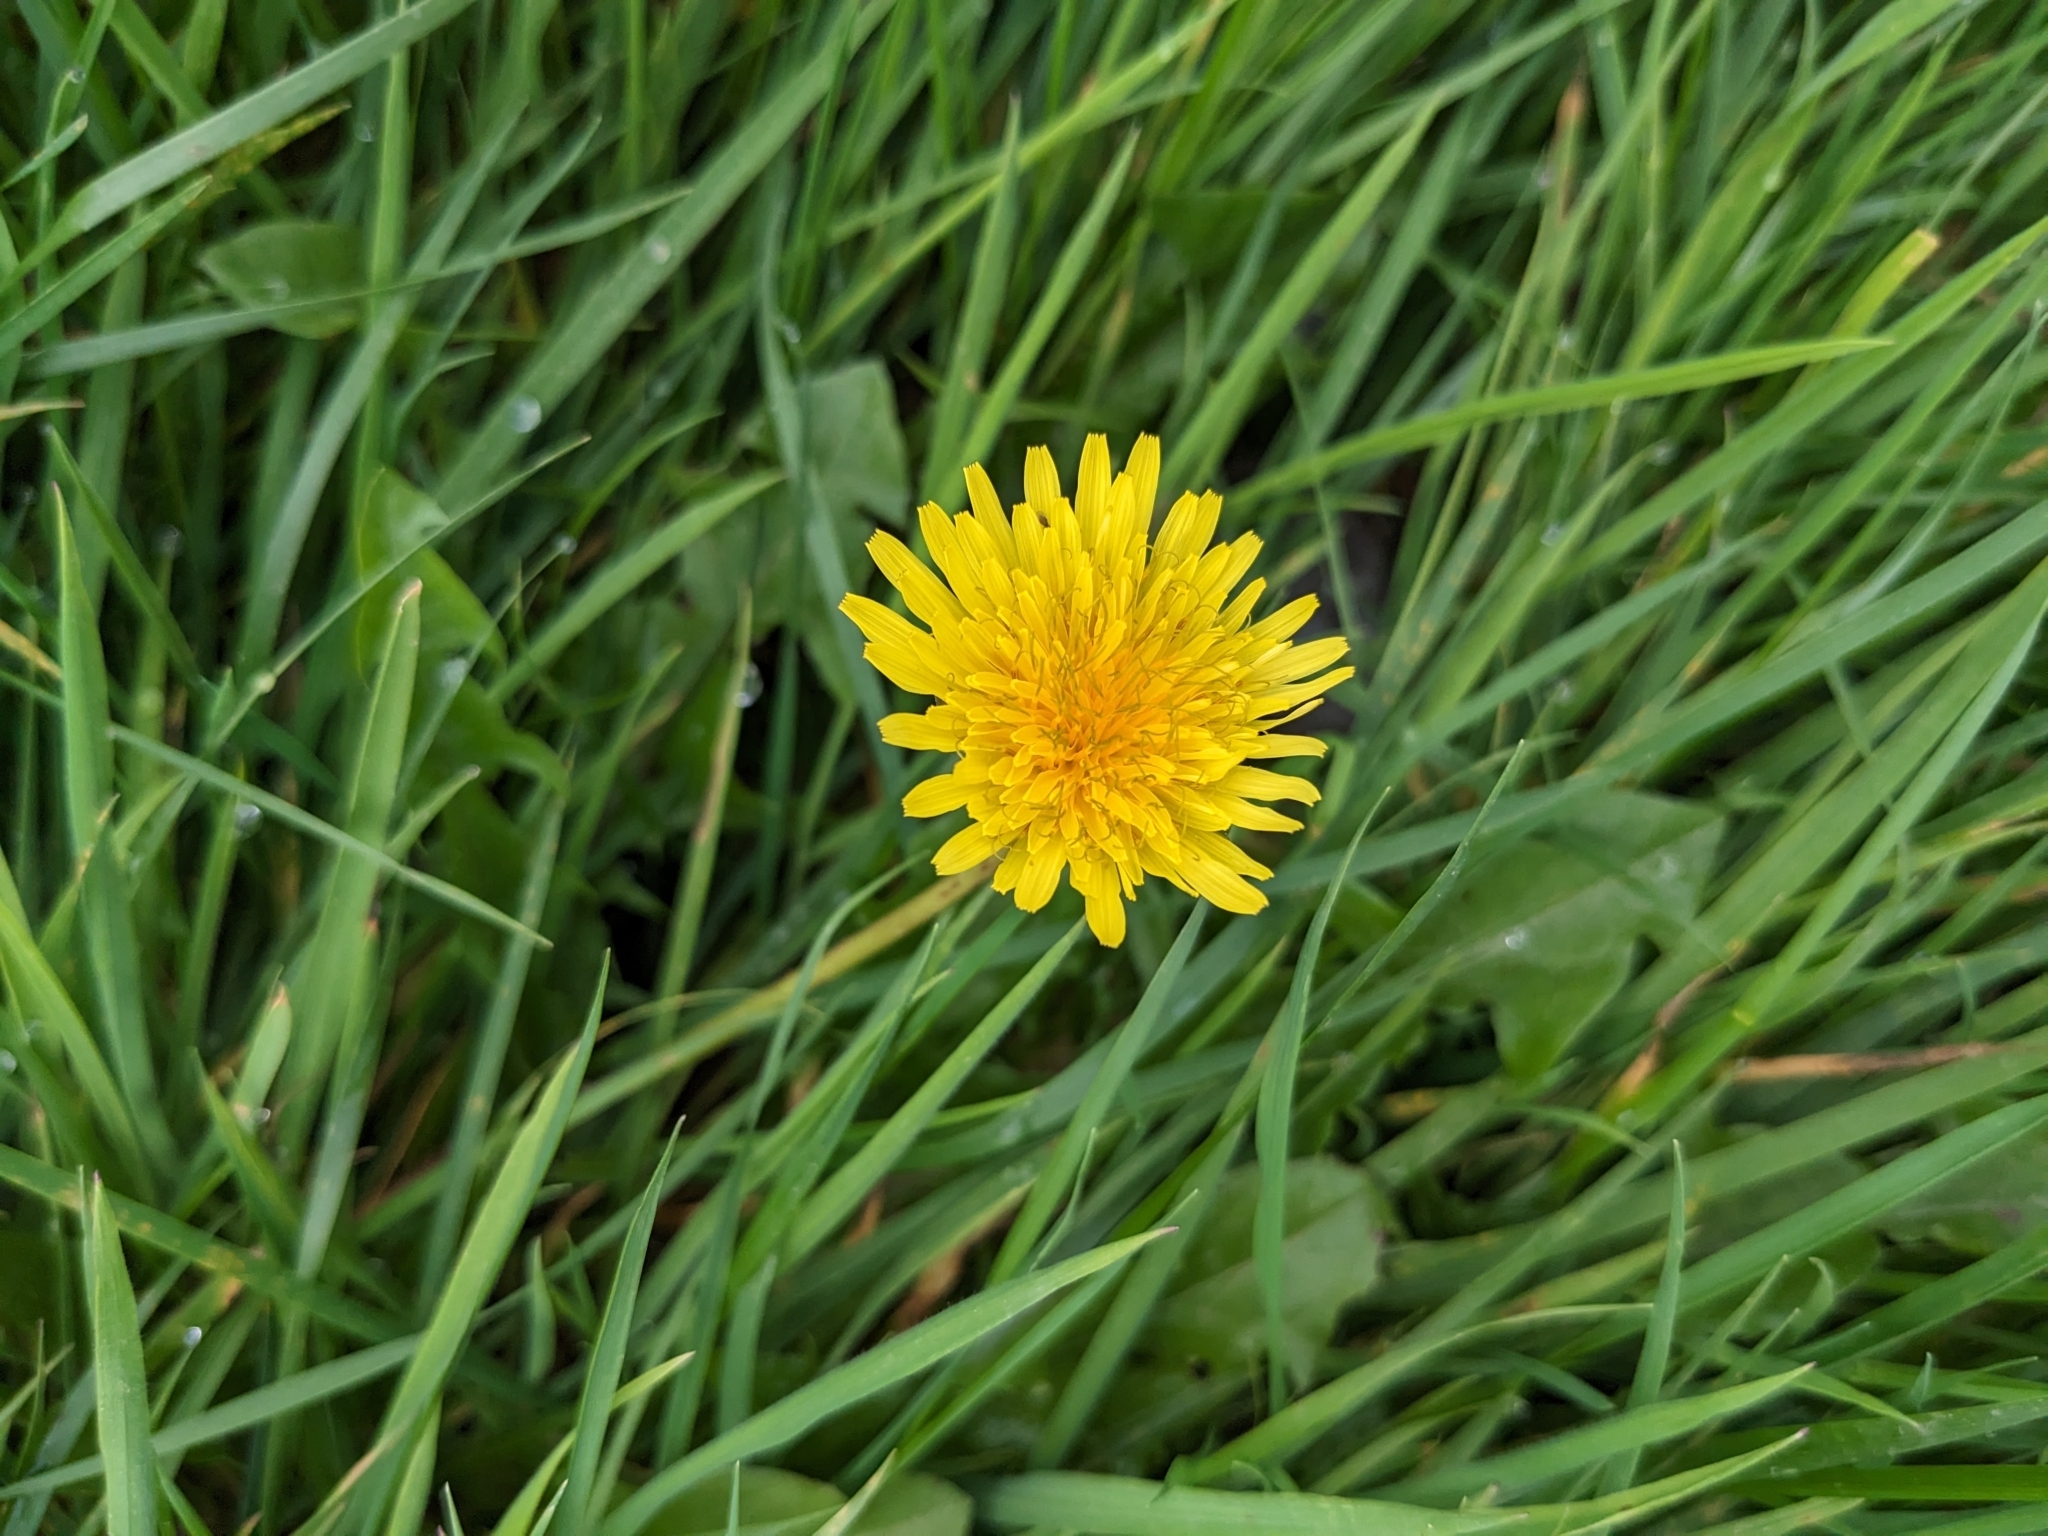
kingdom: Plantae
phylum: Tracheophyta
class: Magnoliopsida
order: Asterales
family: Asteraceae
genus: Taraxacum
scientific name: Taraxacum officinale
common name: Common dandelion
